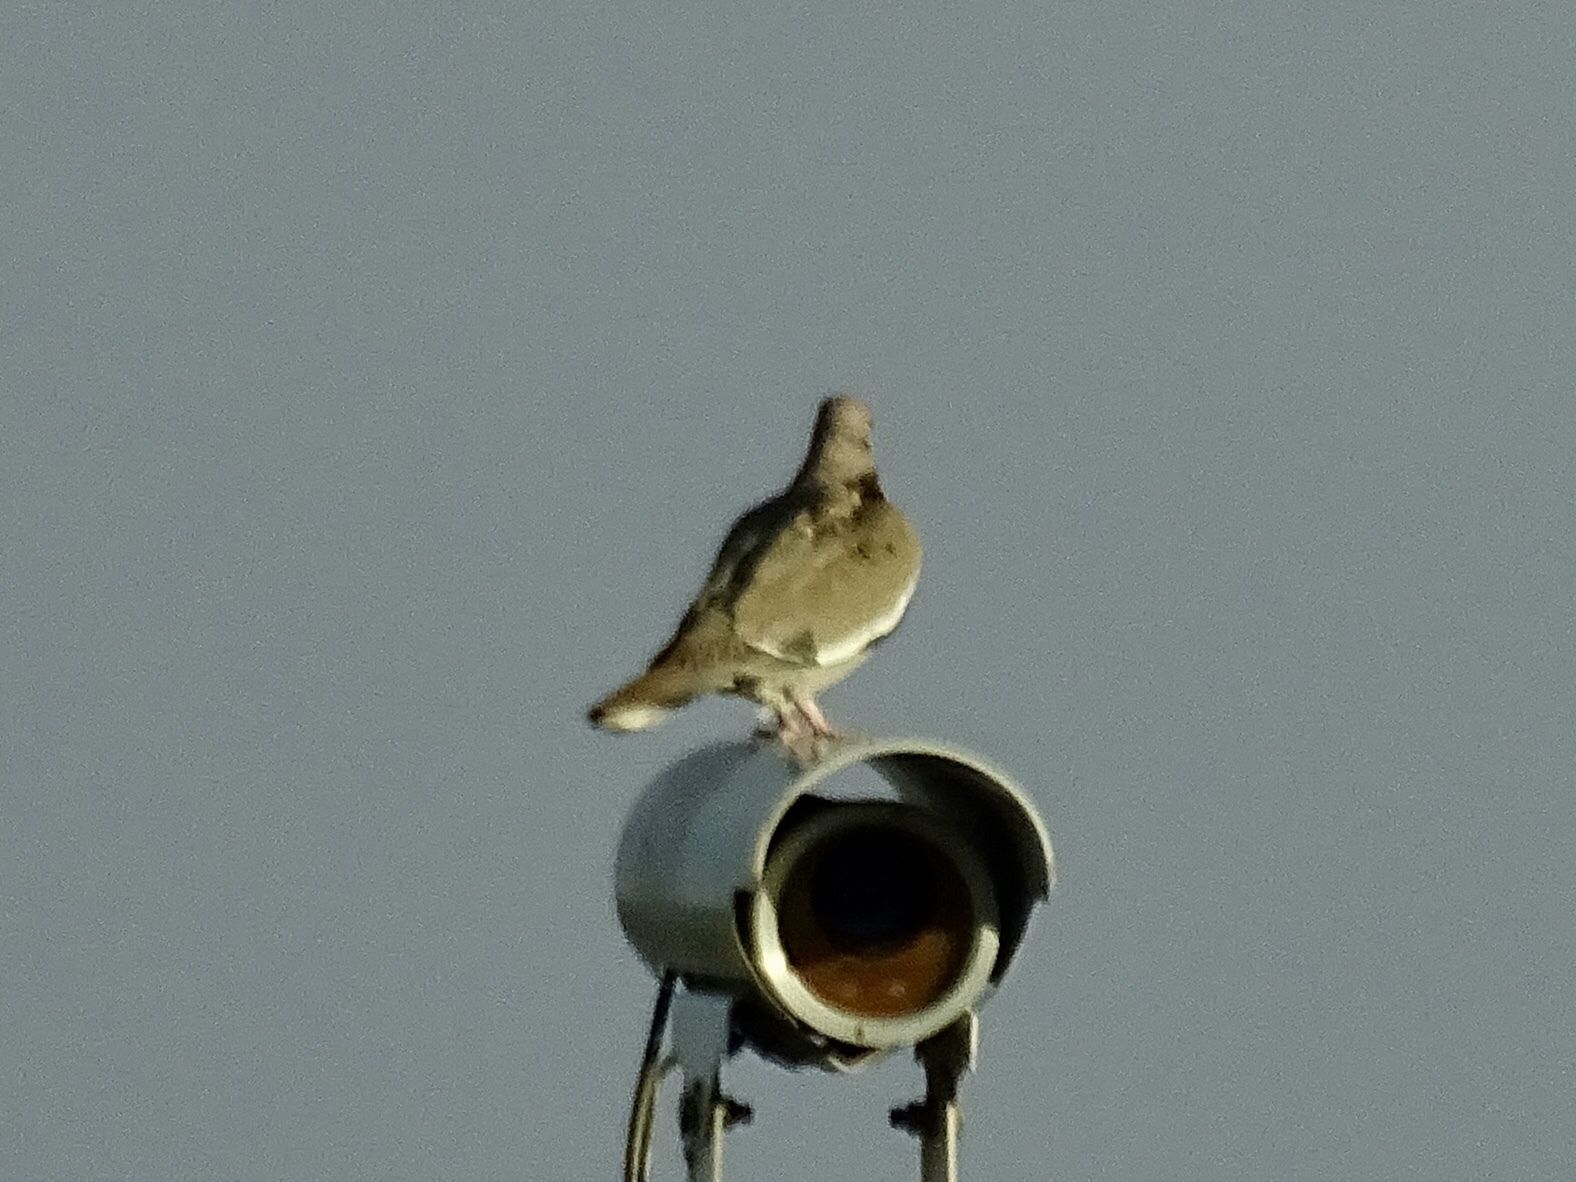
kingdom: Animalia
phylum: Chordata
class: Aves
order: Columbiformes
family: Columbidae
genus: Zenaida
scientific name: Zenaida asiatica
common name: White-winged dove
